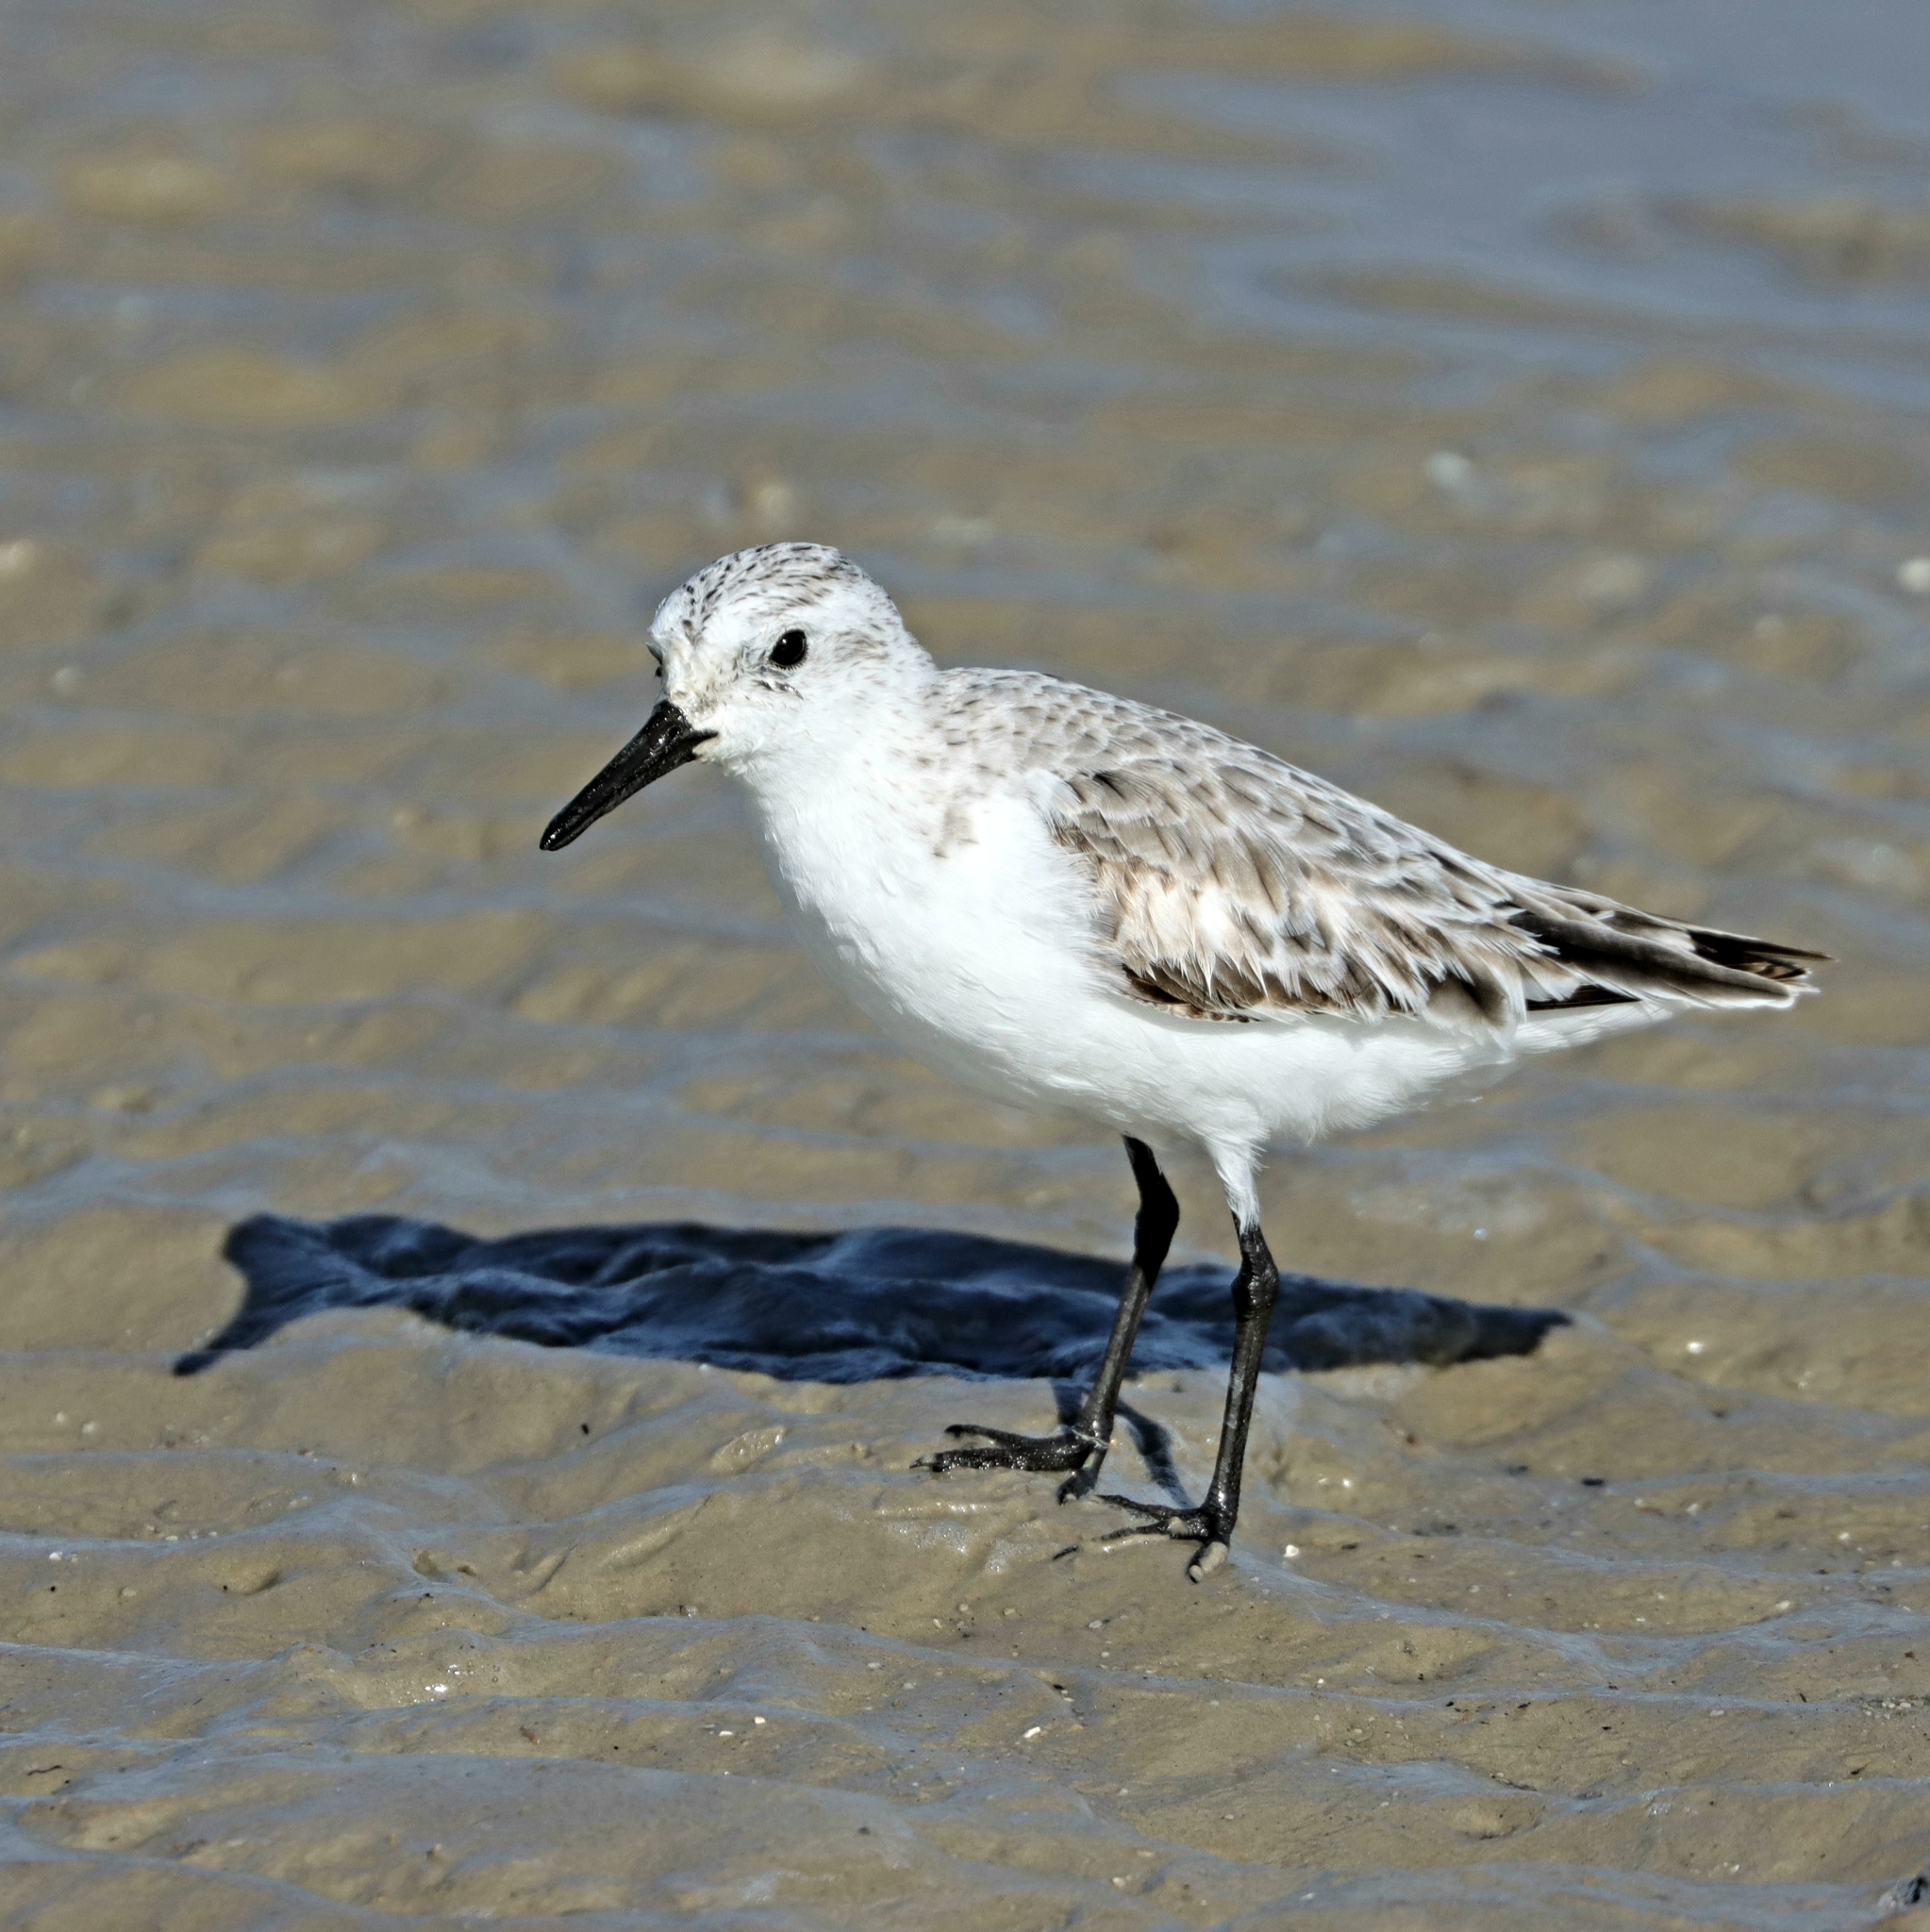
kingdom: Animalia
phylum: Chordata
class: Aves
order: Charadriiformes
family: Scolopacidae
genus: Calidris
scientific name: Calidris alba
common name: Sanderling
